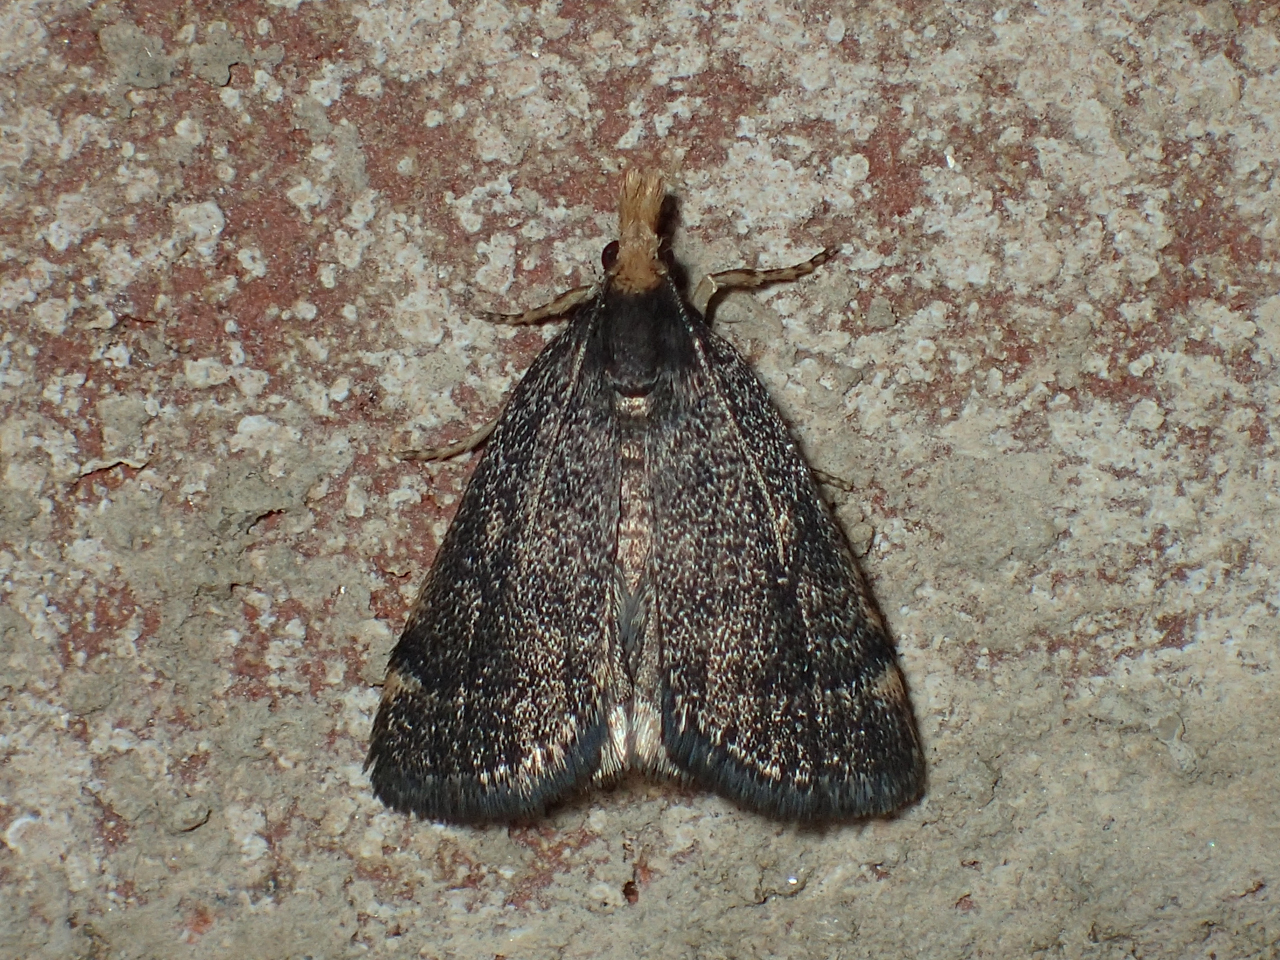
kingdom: Animalia
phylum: Arthropoda
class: Insecta
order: Lepidoptera
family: Crambidae
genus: Pyrausta
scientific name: Pyrausta merrickalis
